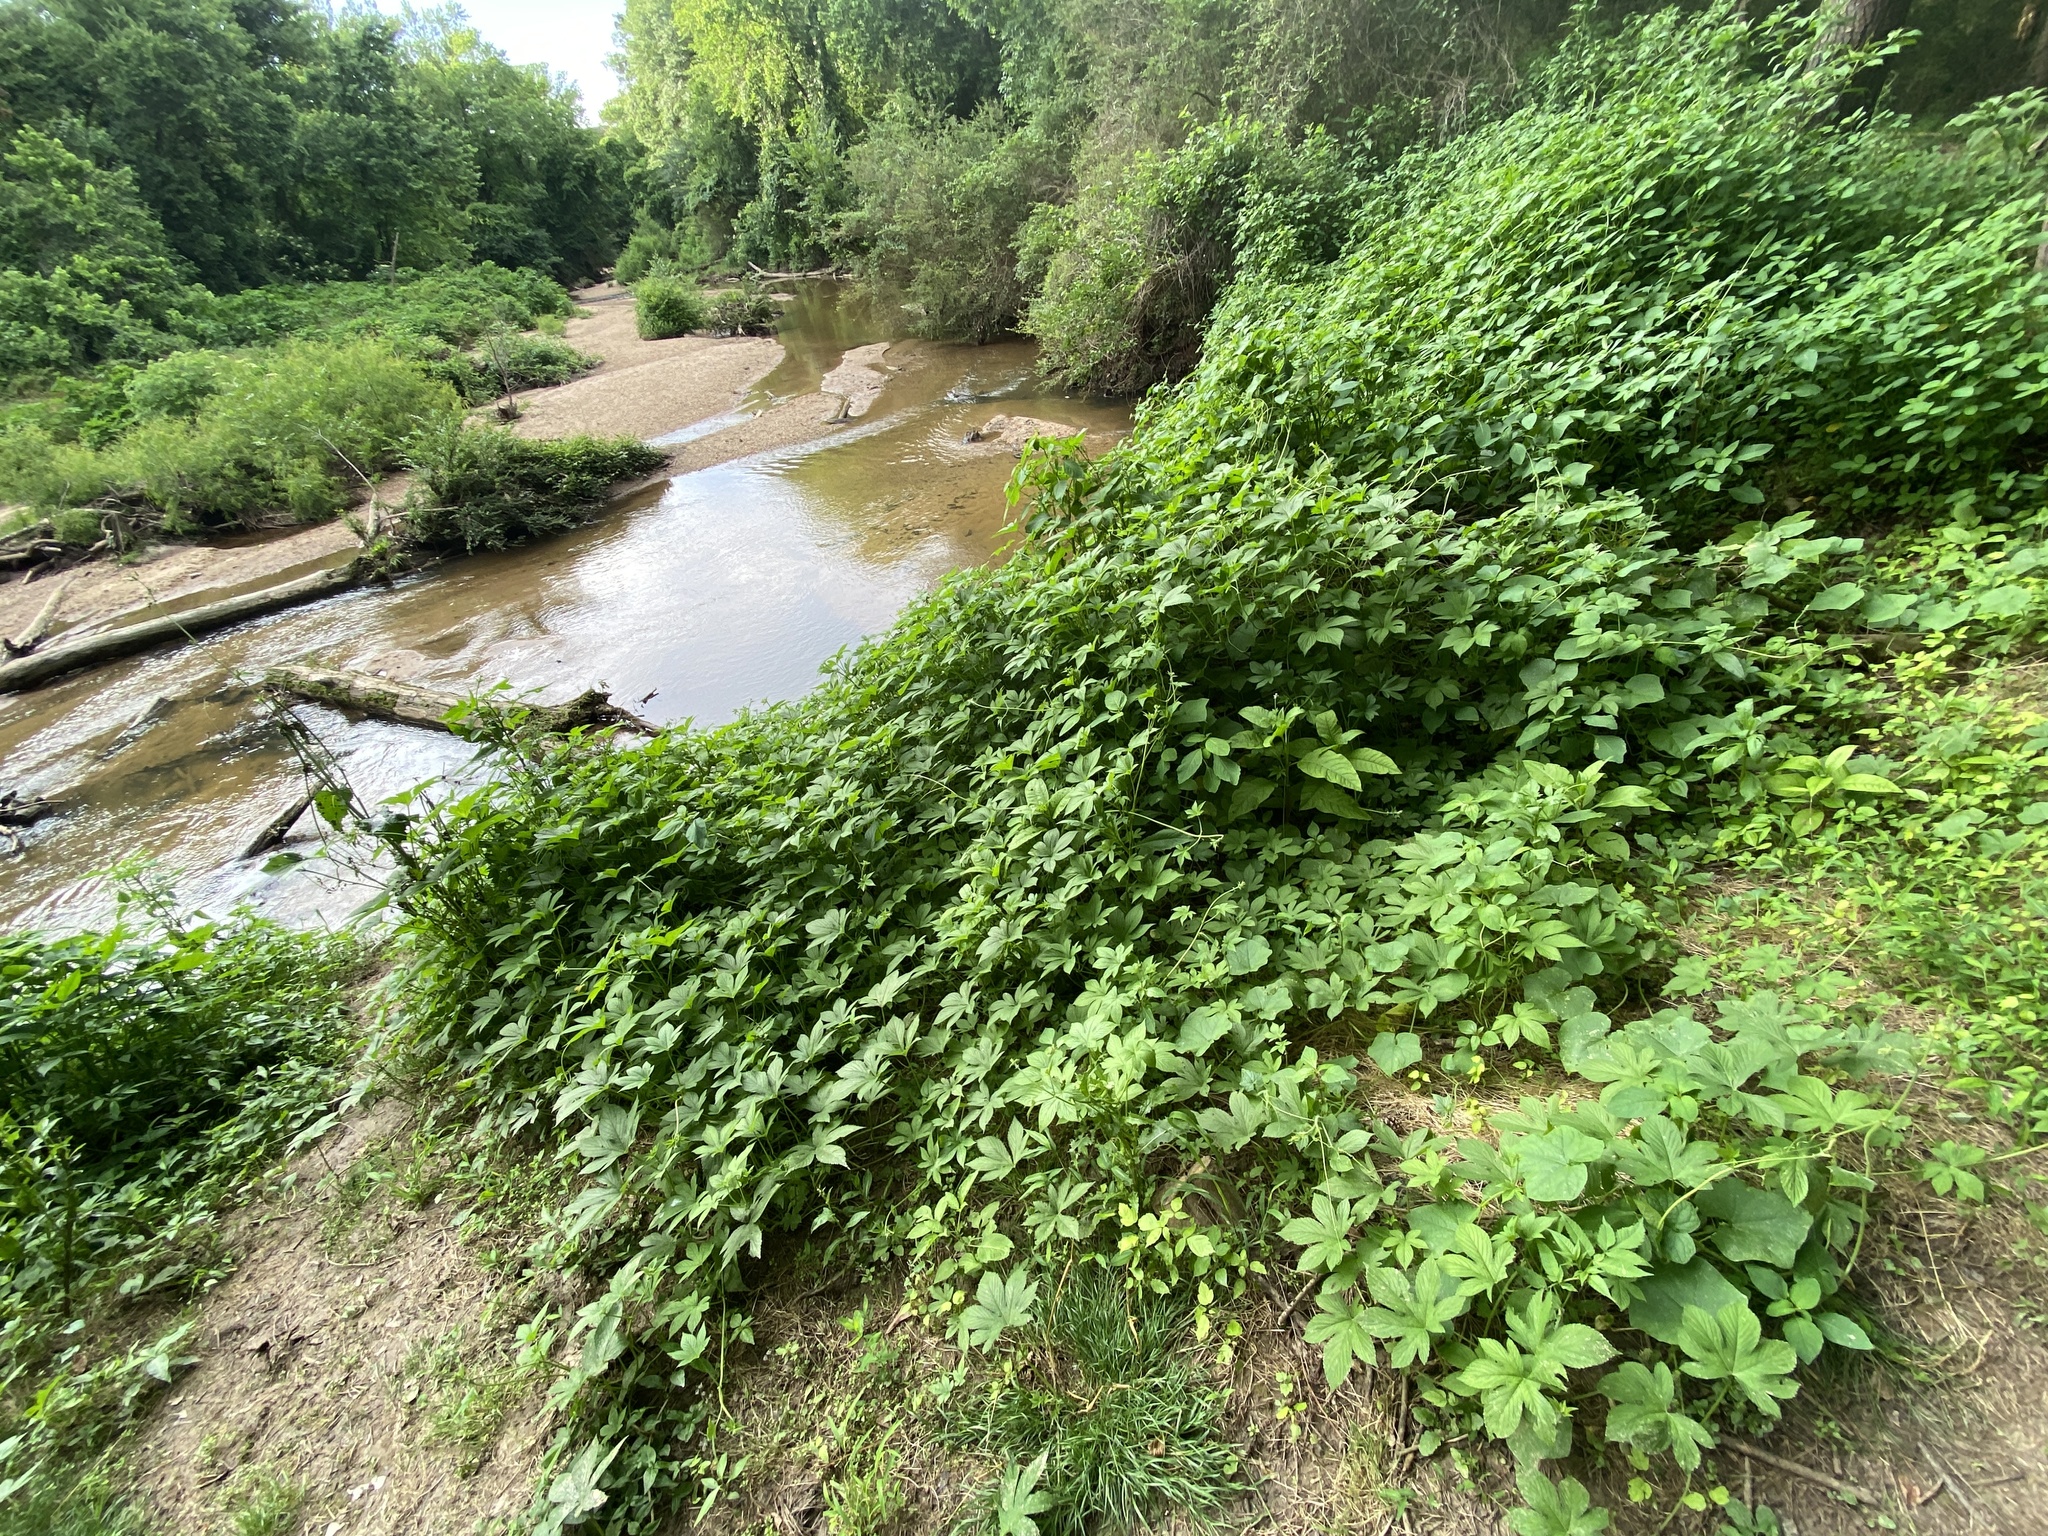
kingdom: Plantae
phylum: Tracheophyta
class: Magnoliopsida
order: Rosales
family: Cannabaceae
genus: Humulus
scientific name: Humulus scandens
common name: Japanese hop
